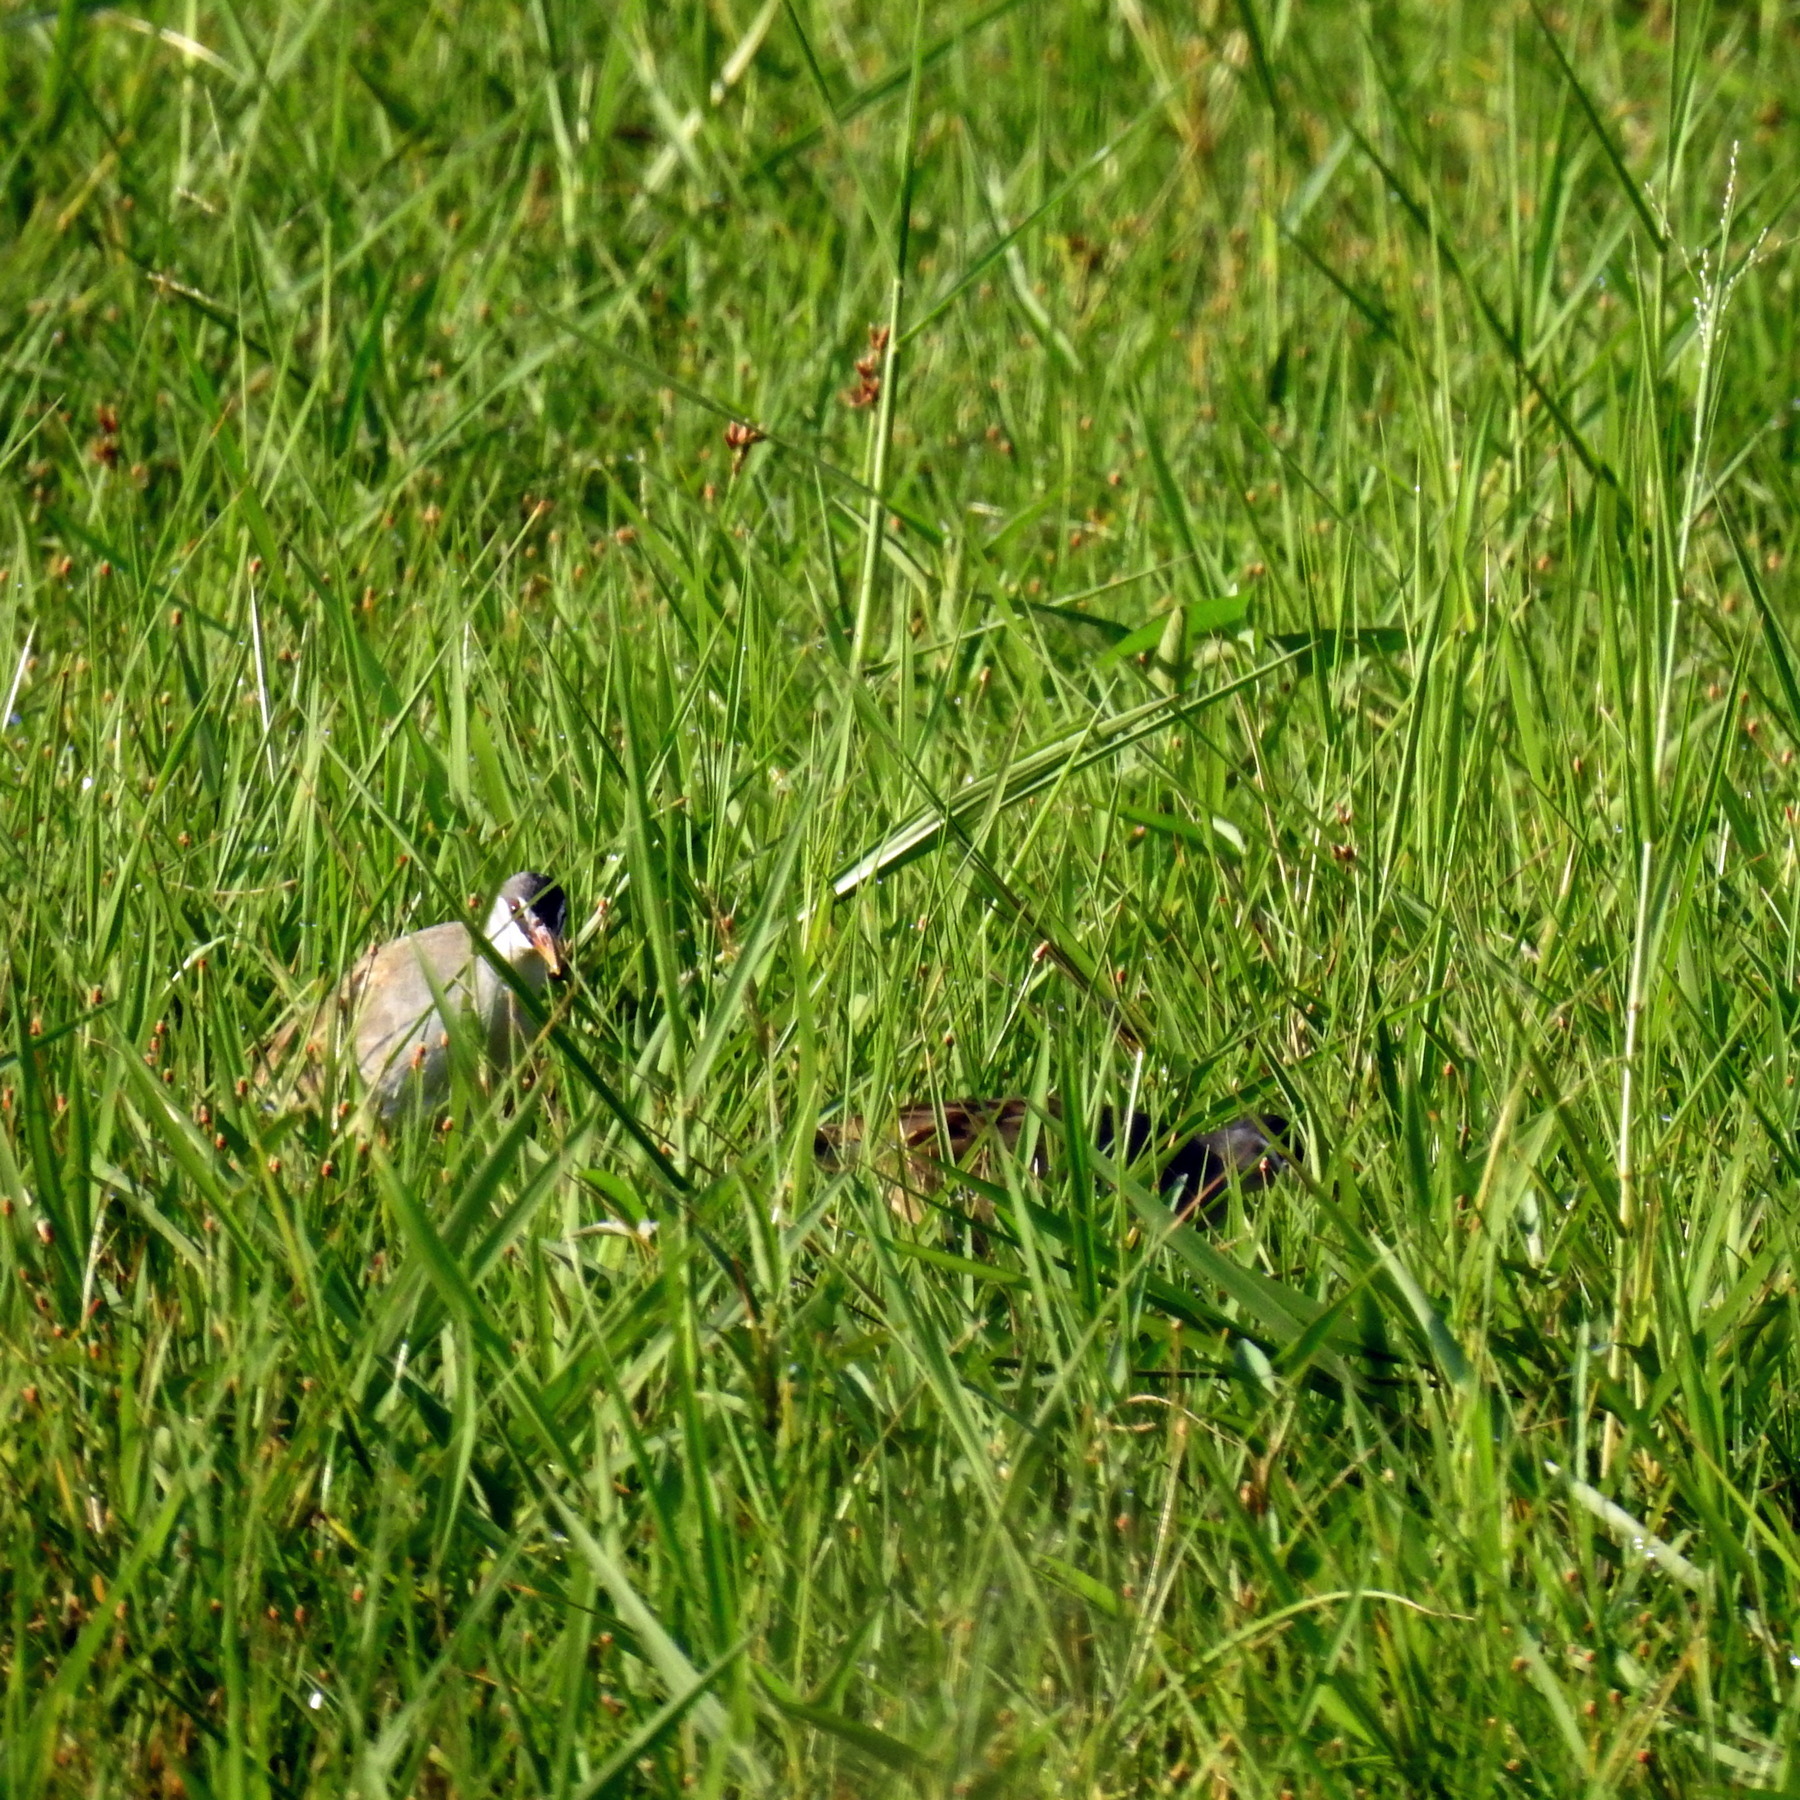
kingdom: Animalia
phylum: Chordata
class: Aves
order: Gruiformes
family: Rallidae
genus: Porzana
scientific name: Porzana cinerea
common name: White-browed crake
